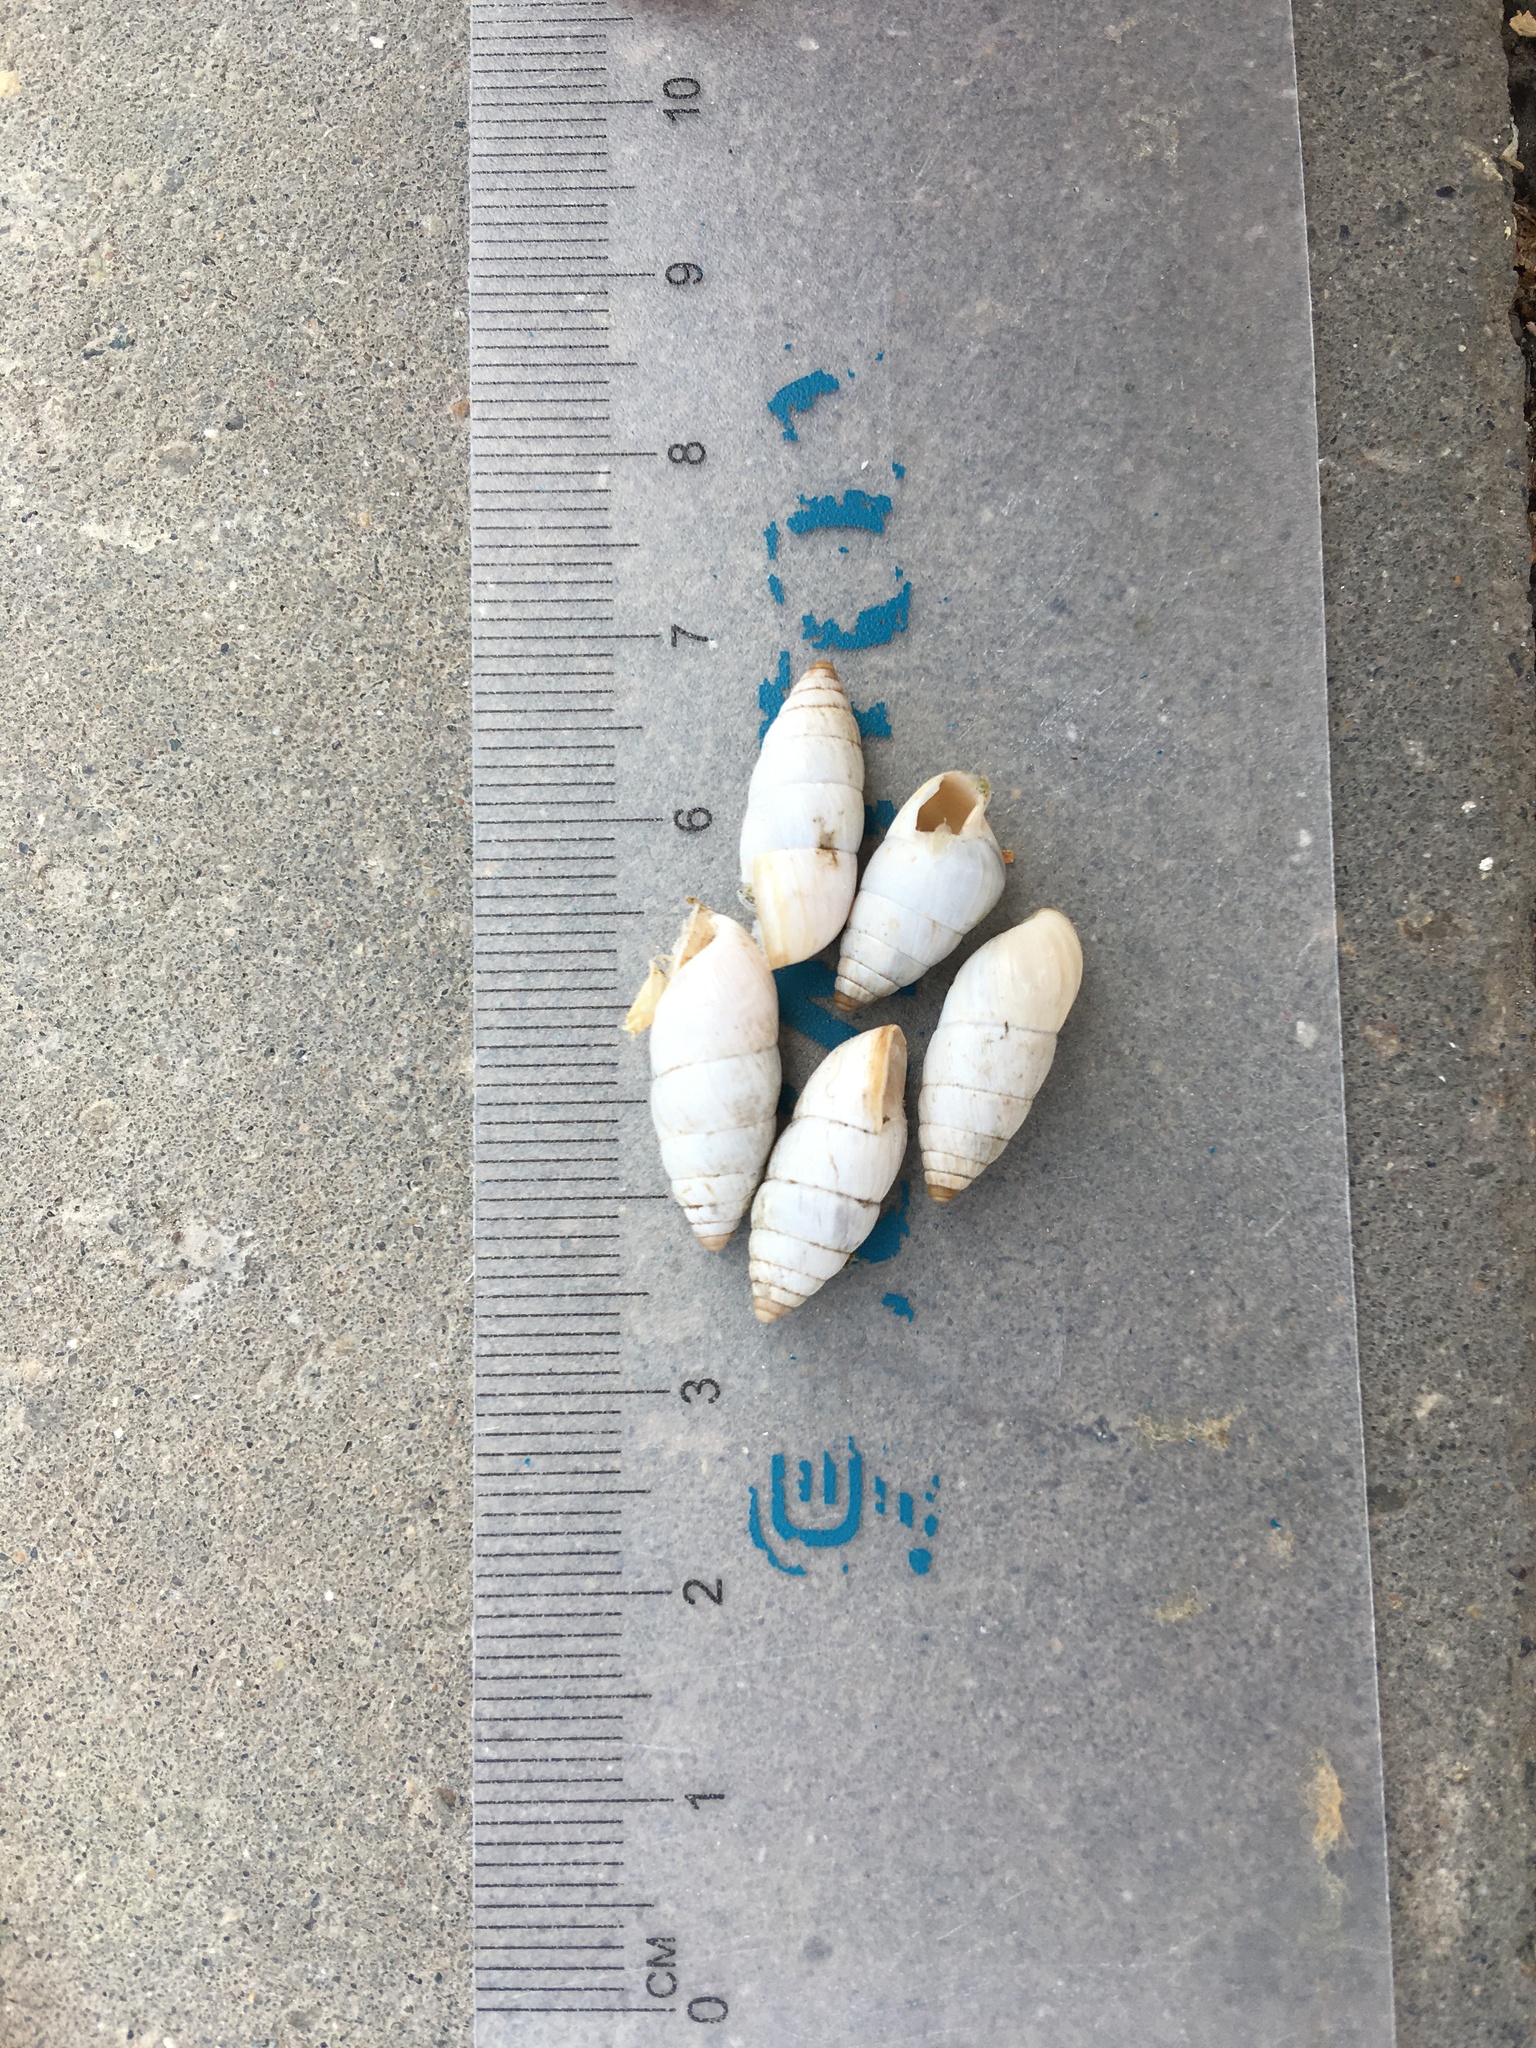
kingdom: Animalia
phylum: Mollusca
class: Gastropoda
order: Stylommatophora
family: Enidae
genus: Brephulopsis
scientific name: Brephulopsis cylindrica
